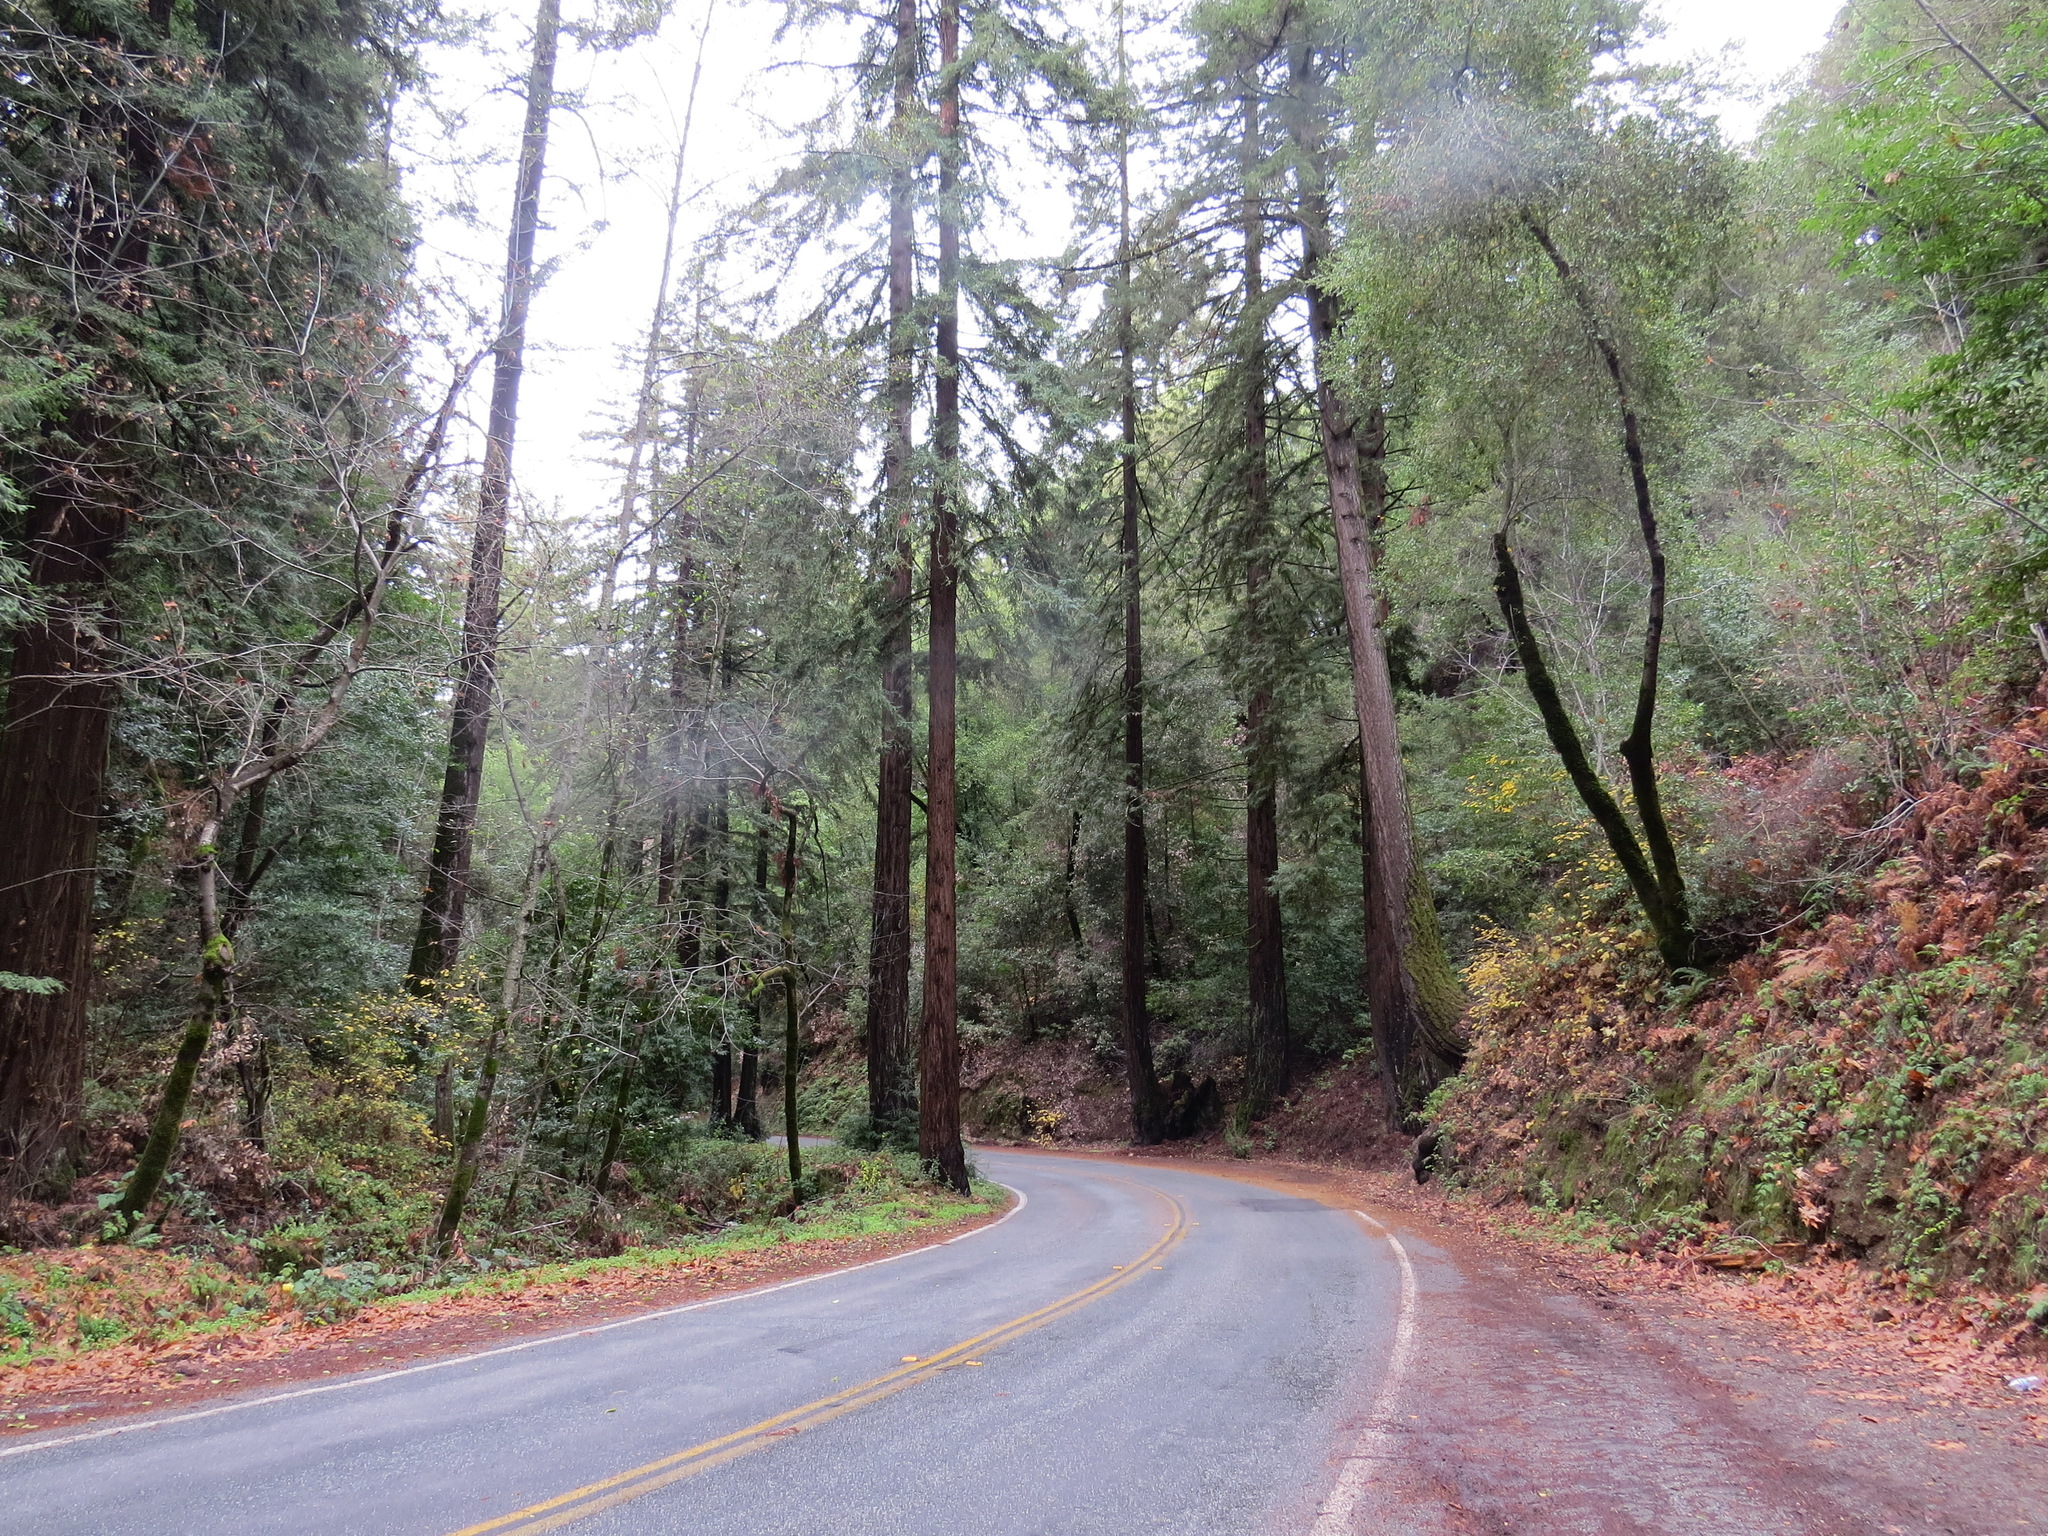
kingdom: Plantae
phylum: Tracheophyta
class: Pinopsida
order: Pinales
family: Cupressaceae
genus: Sequoia
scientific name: Sequoia sempervirens
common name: Coast redwood
